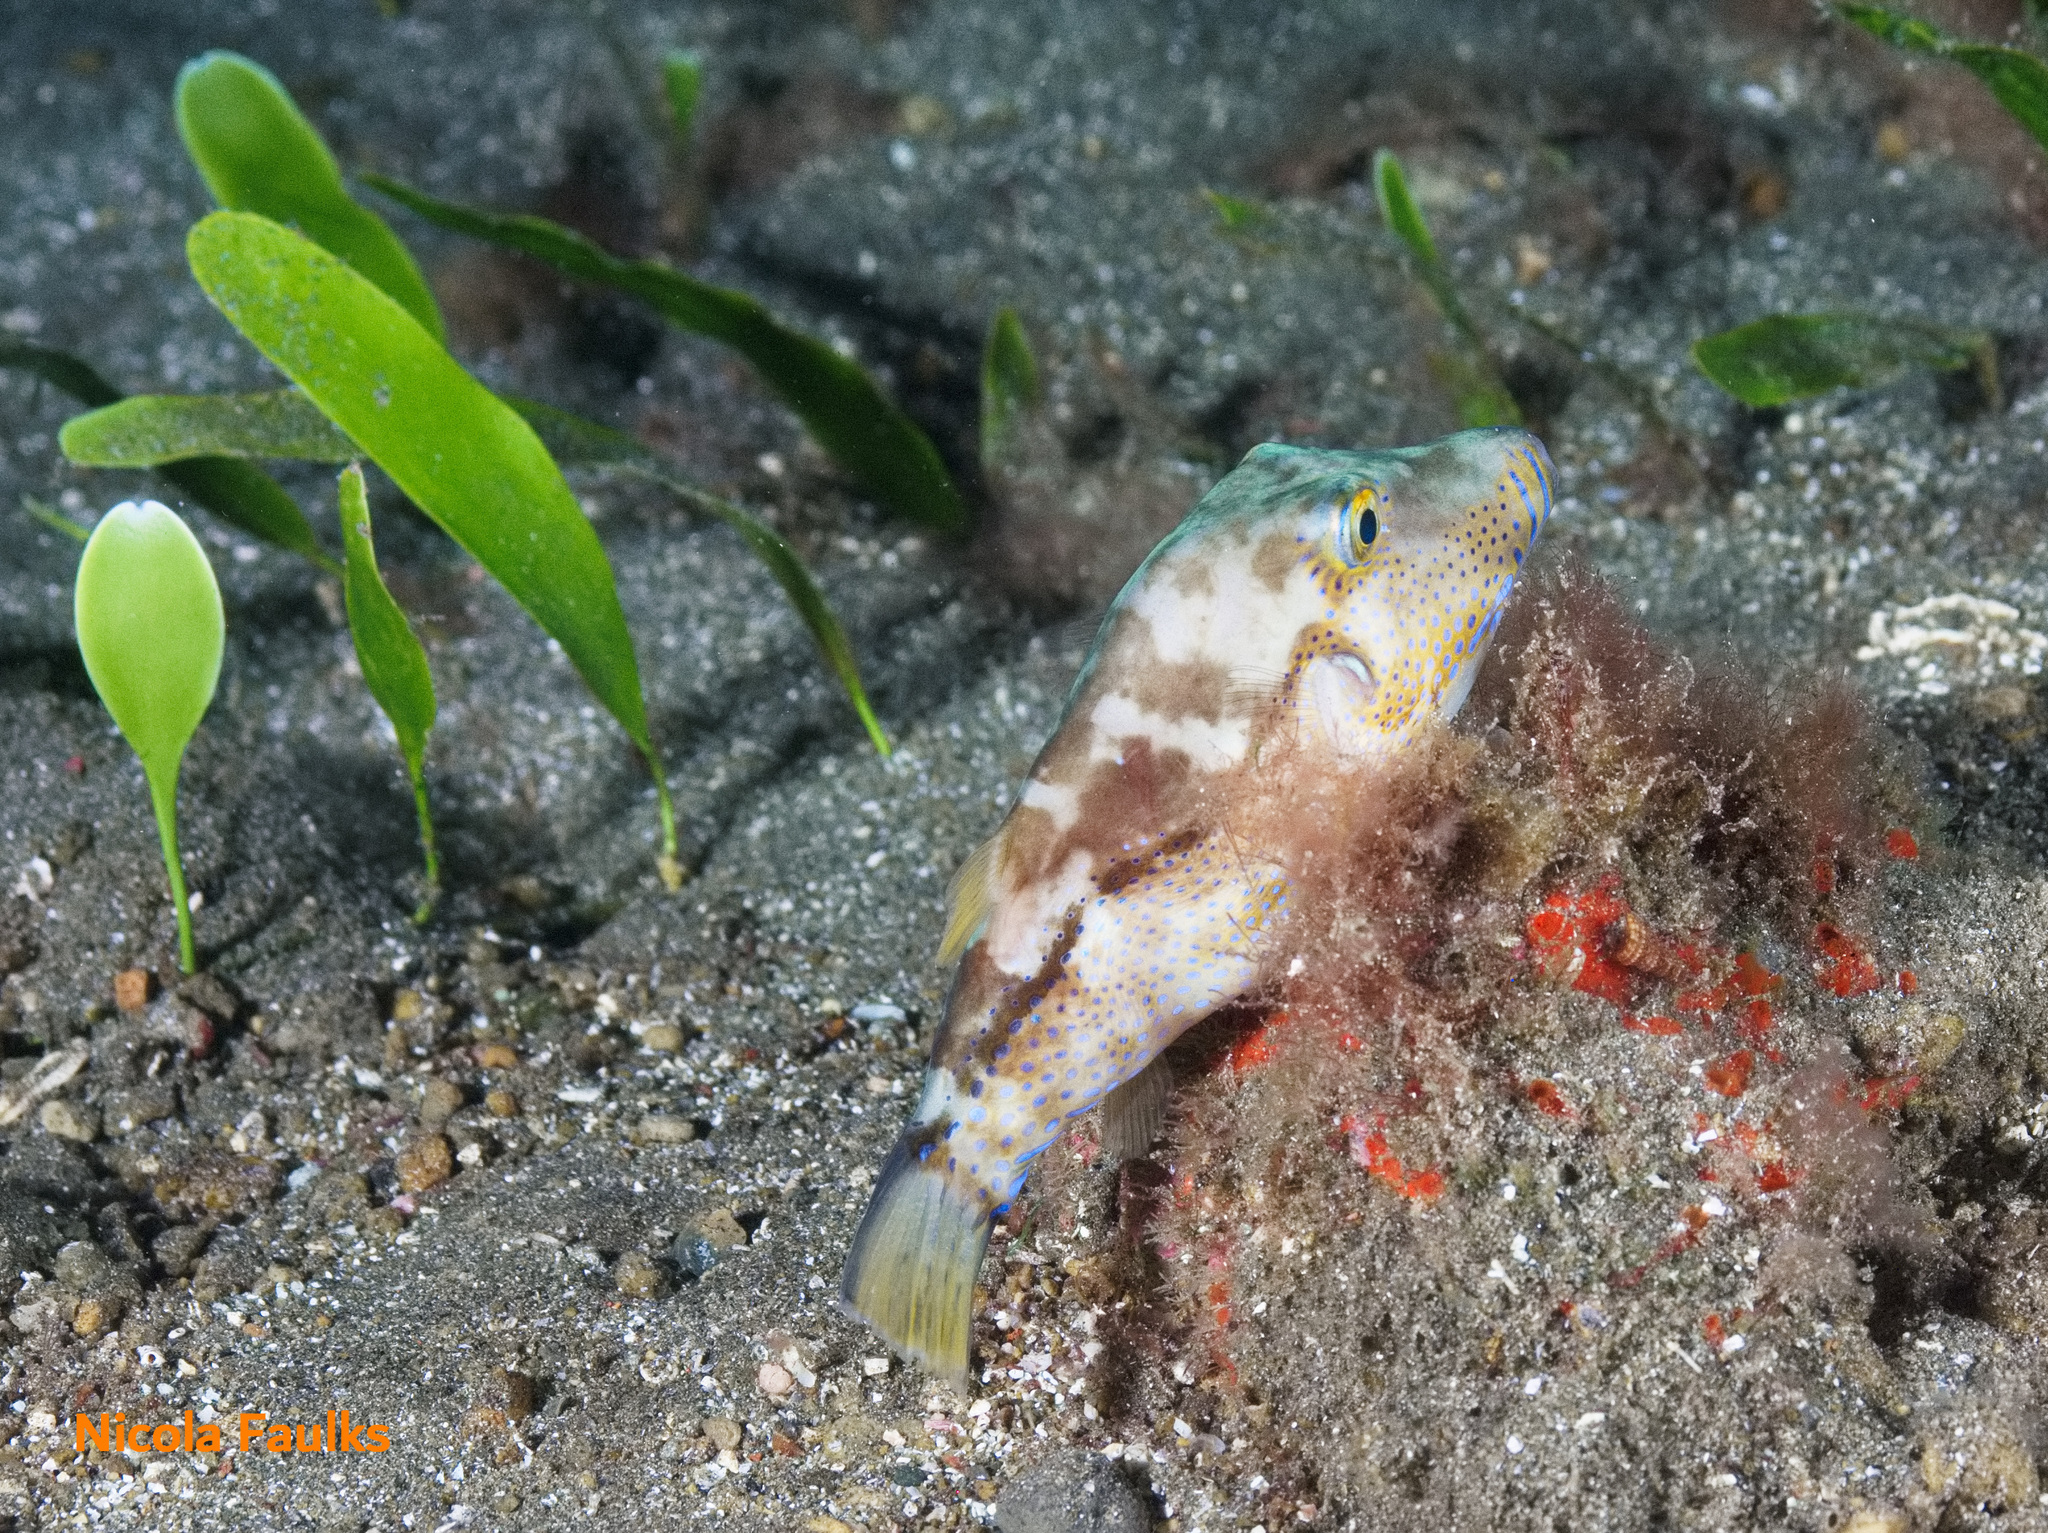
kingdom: Animalia
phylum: Chordata
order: Tetraodontiformes
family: Tetraodontidae
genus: Canthigaster
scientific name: Canthigaster capistrata
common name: Macaronesian sharpnose-puffer
